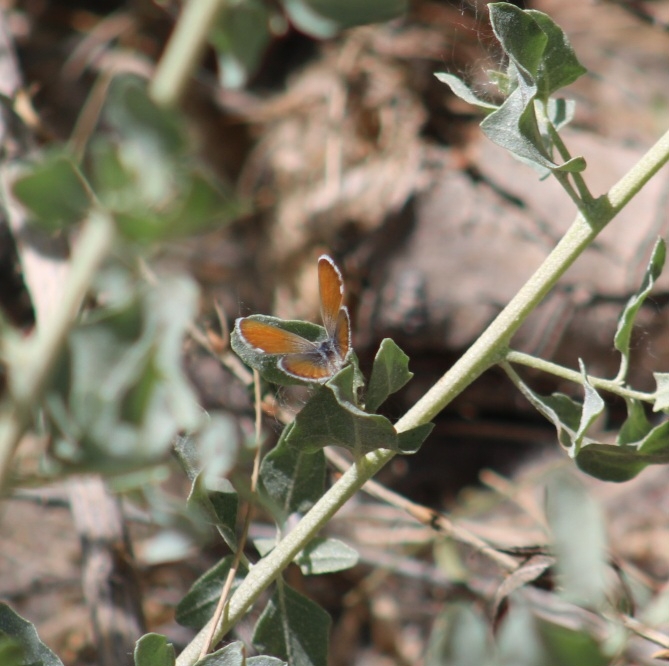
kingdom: Animalia
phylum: Arthropoda
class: Insecta
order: Lepidoptera
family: Lycaenidae
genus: Brephidium
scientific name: Brephidium exilis
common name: Pygmy blue
